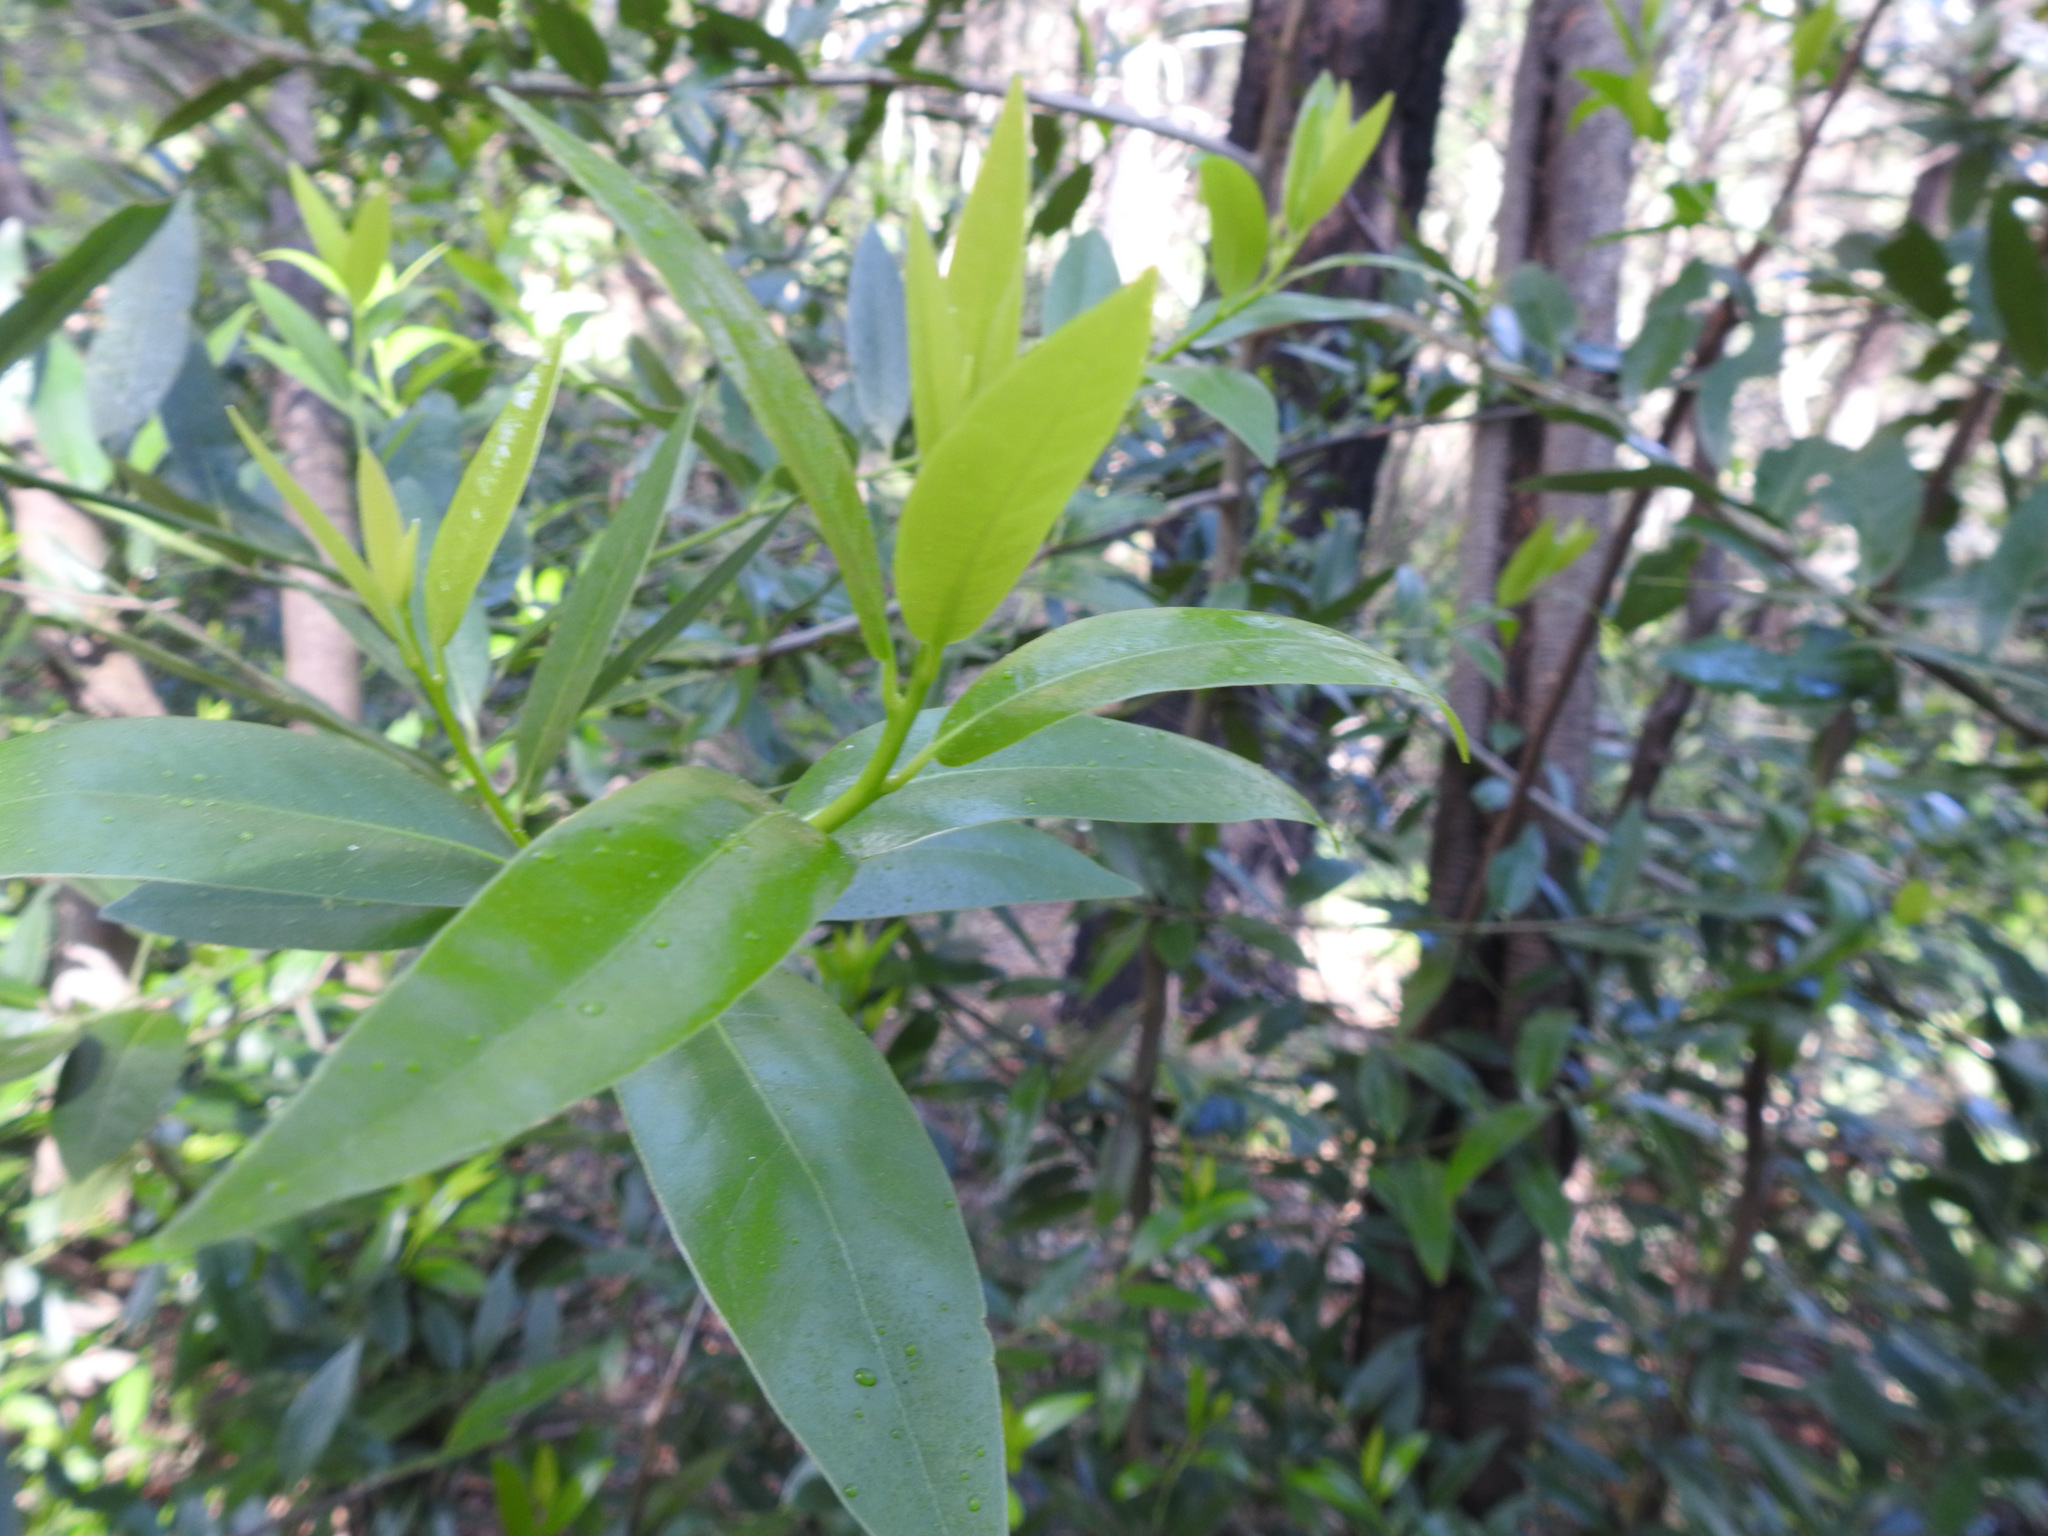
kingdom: Plantae
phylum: Tracheophyta
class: Magnoliopsida
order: Laurales
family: Lauraceae
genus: Umbellularia
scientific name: Umbellularia californica
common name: California bay
